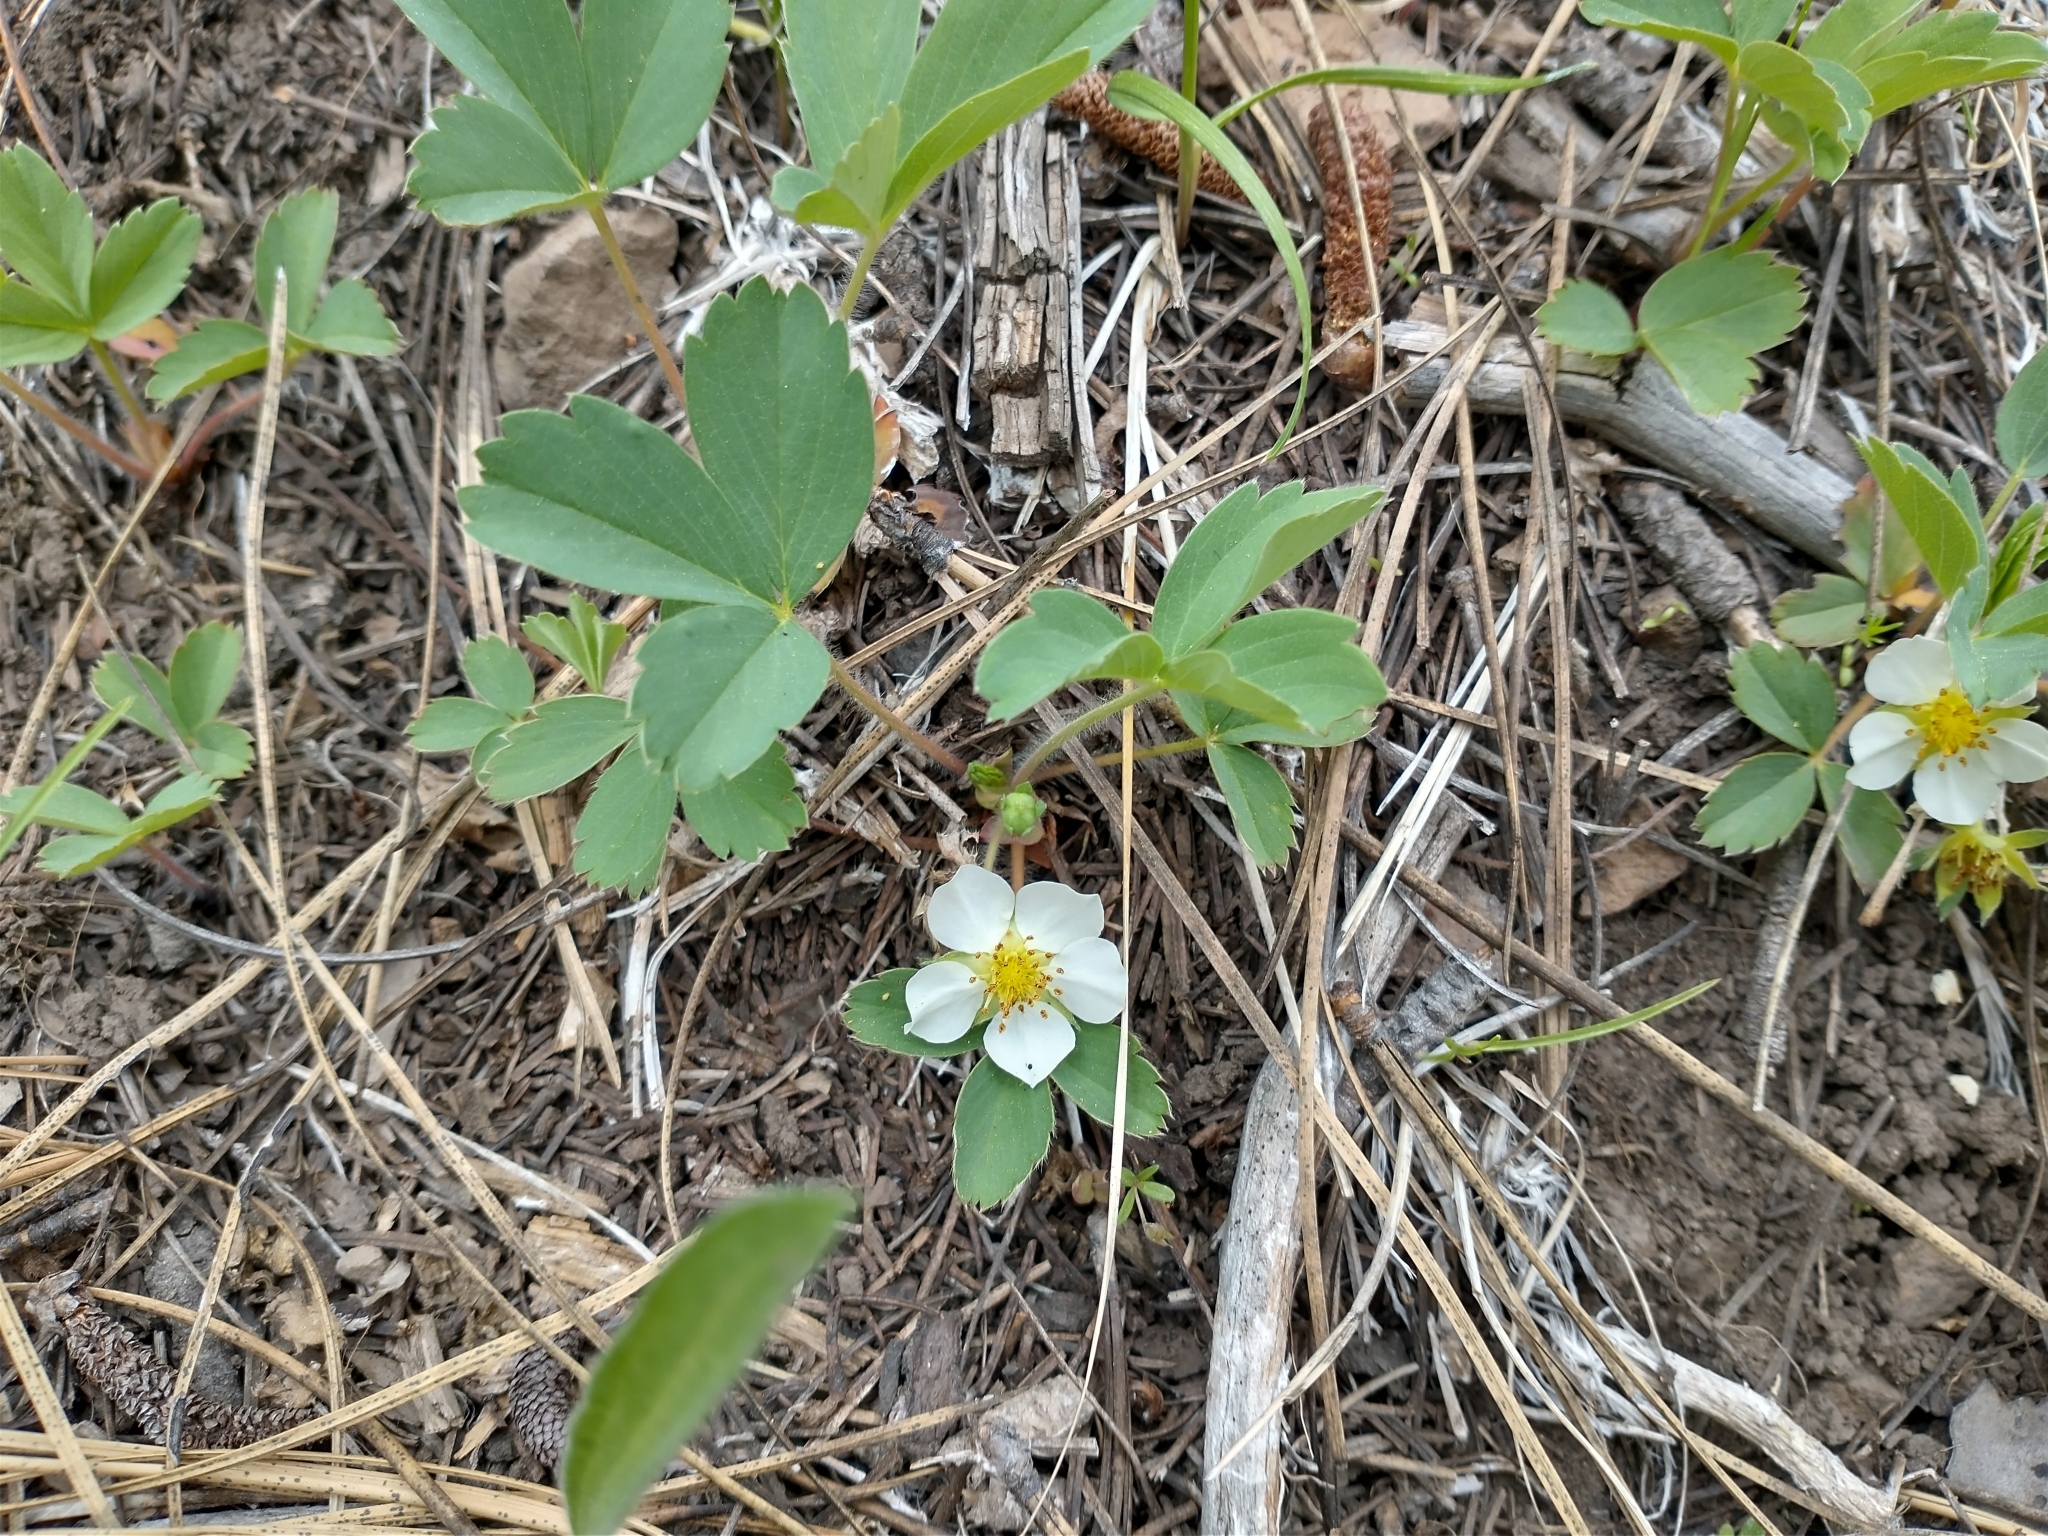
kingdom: Plantae
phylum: Tracheophyta
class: Magnoliopsida
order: Rosales
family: Rosaceae
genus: Fragaria
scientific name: Fragaria virginiana
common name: Thickleaved wild strawberry
